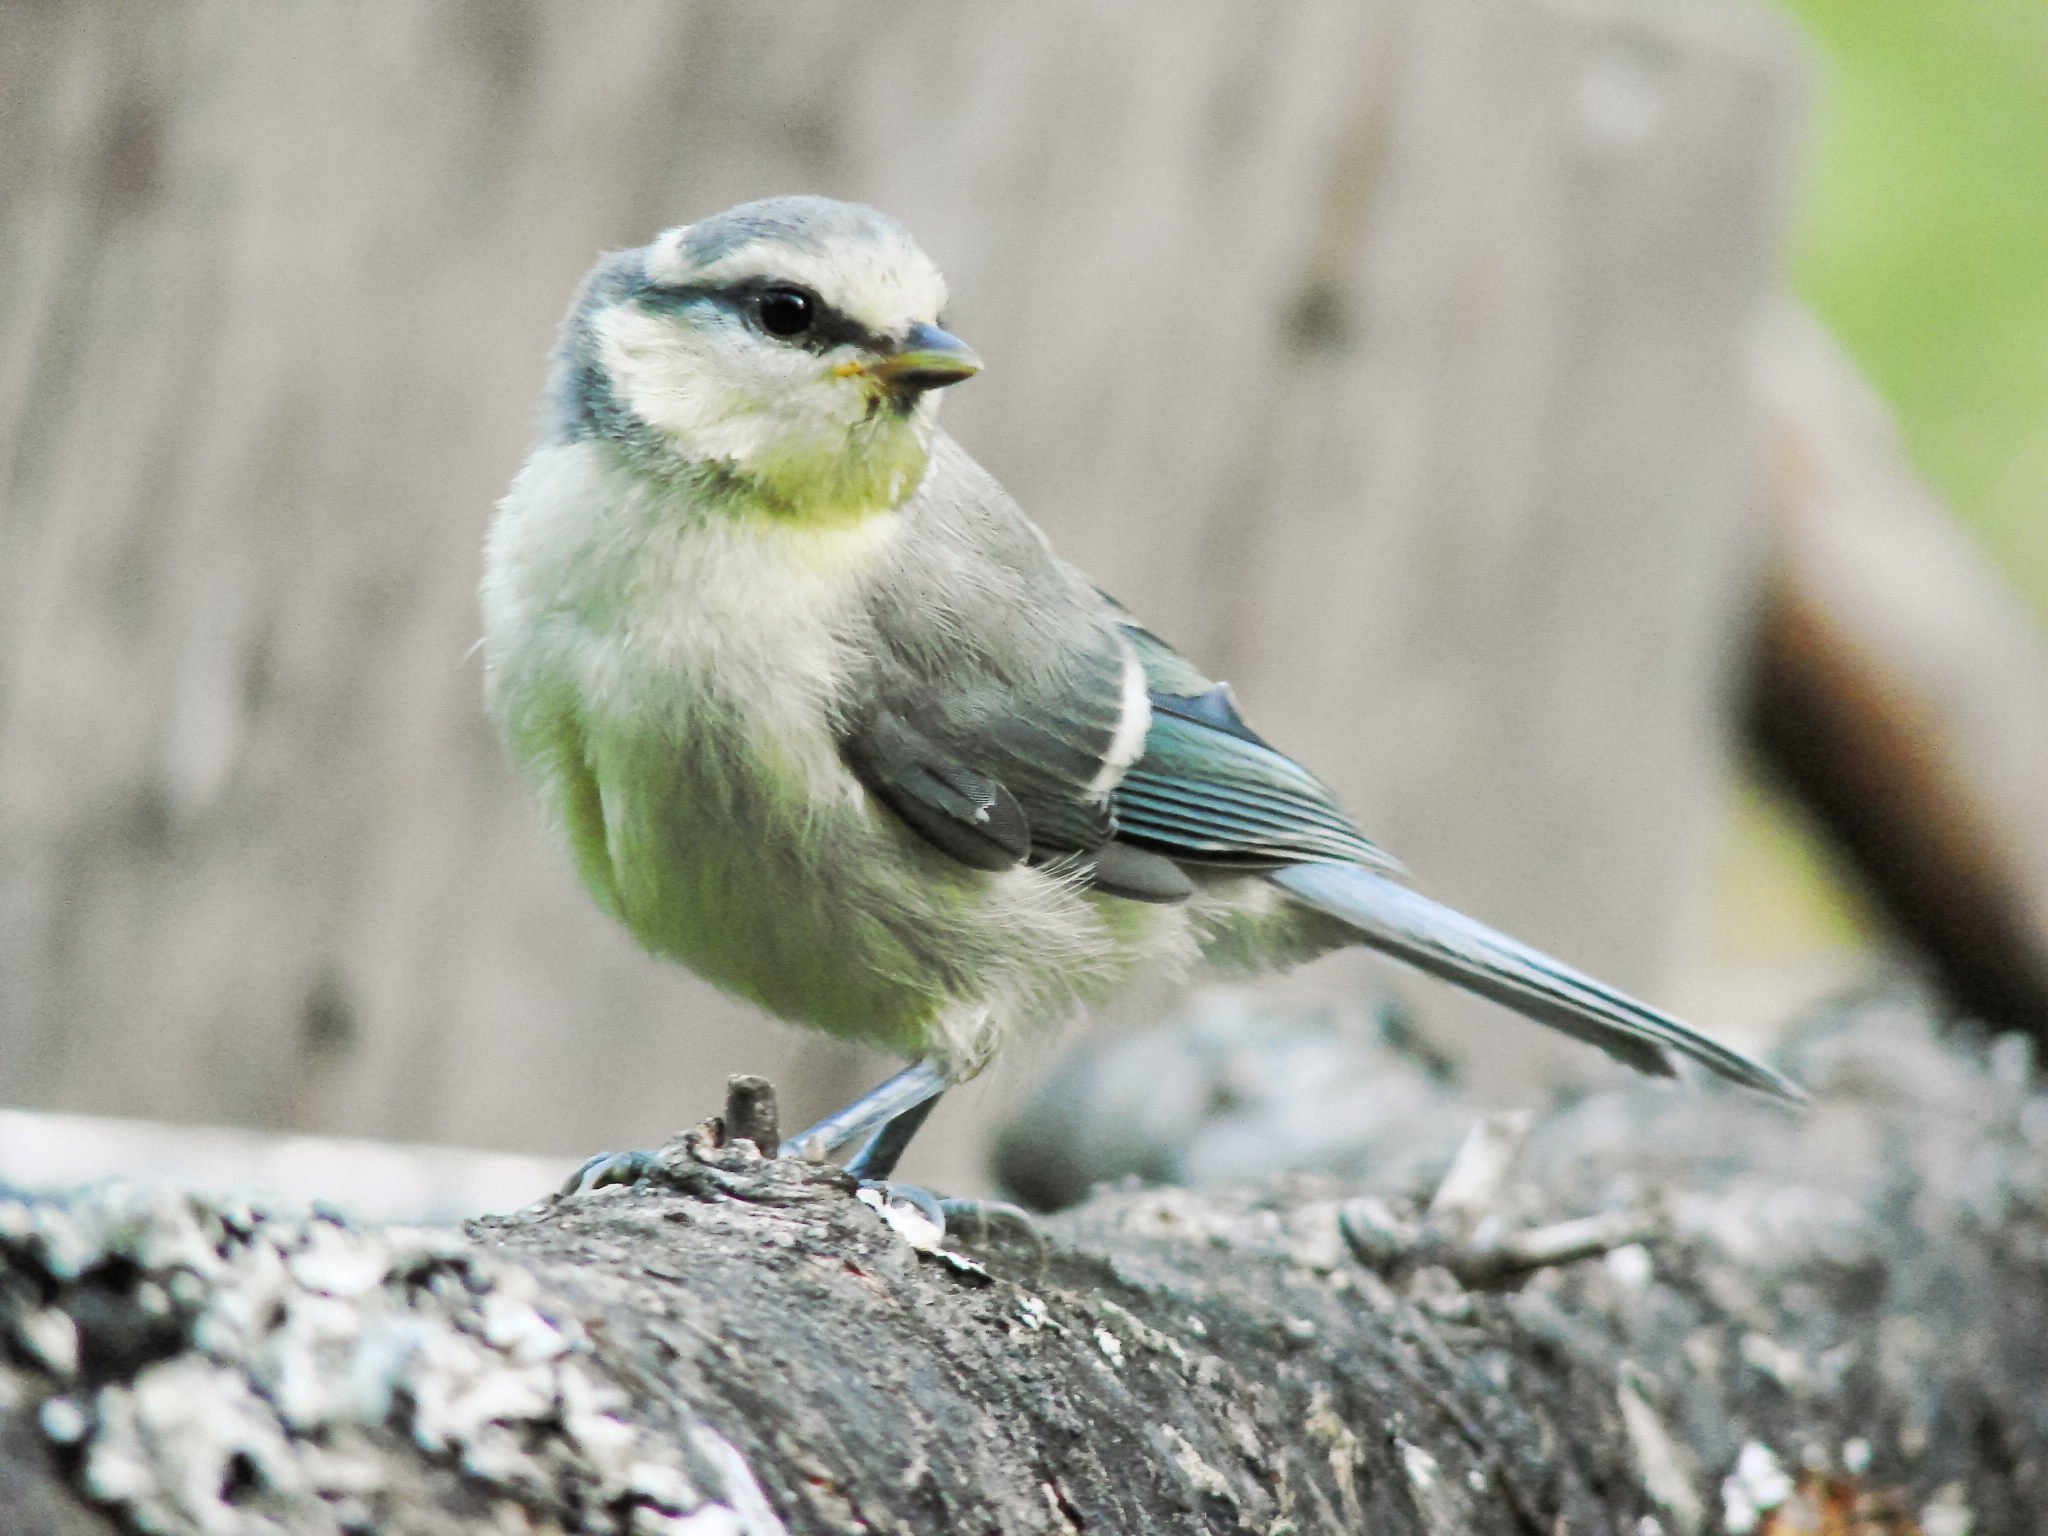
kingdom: Animalia
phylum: Chordata
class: Aves
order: Passeriformes
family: Paridae
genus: Cyanistes
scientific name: Cyanistes caeruleus
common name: Eurasian blue tit
